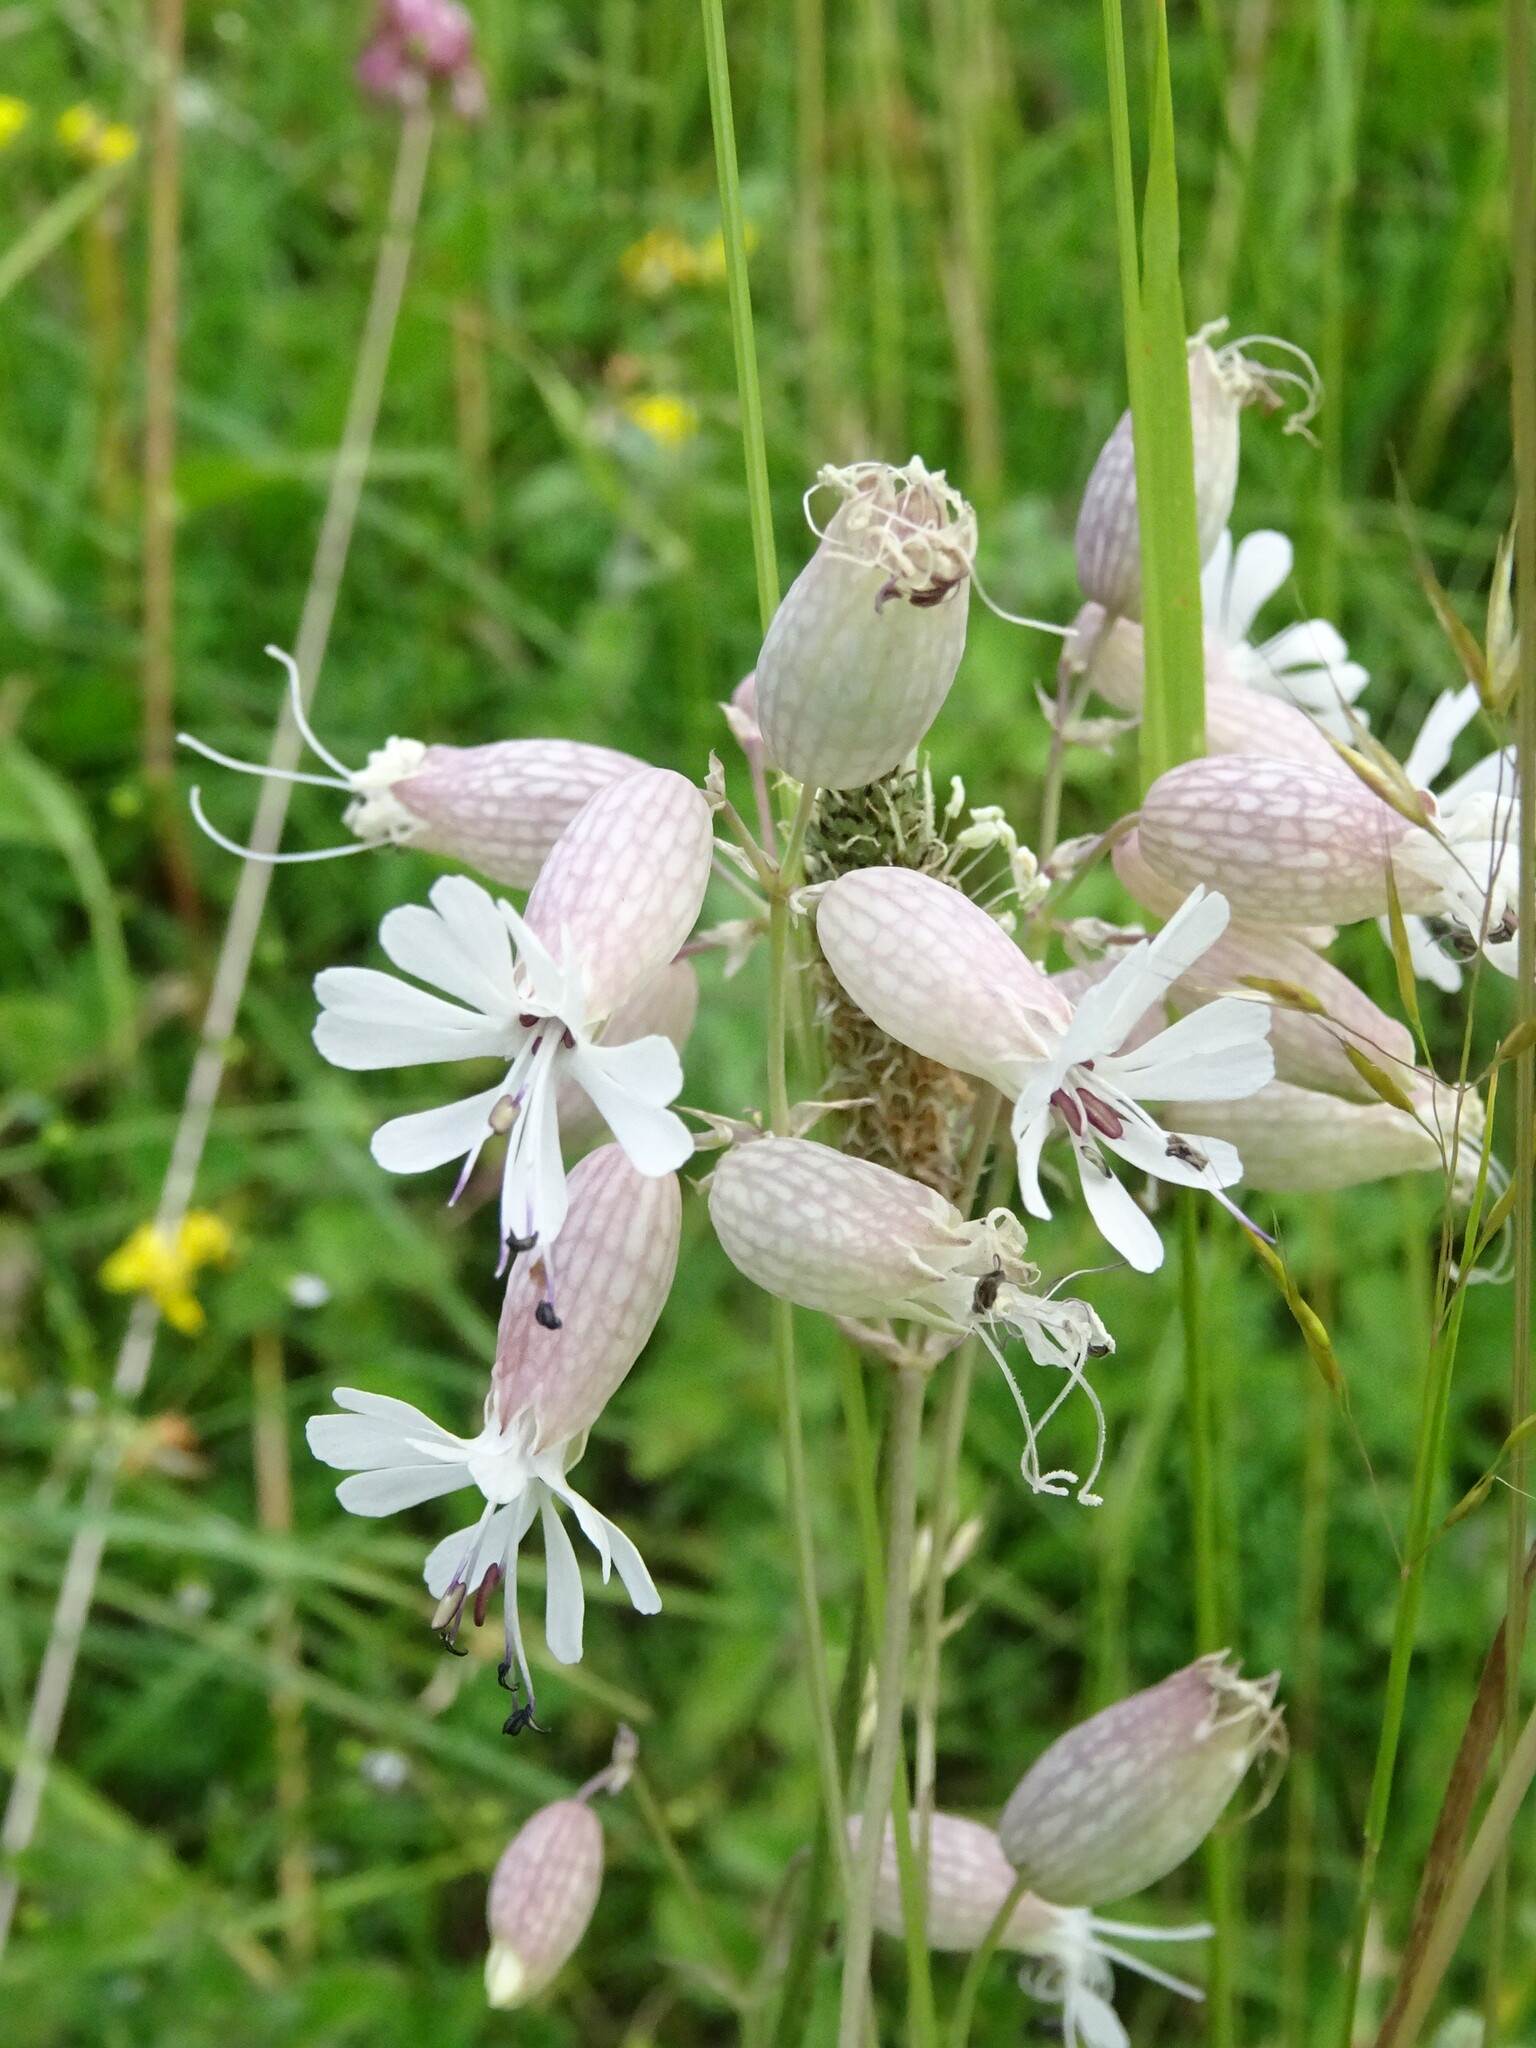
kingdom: Plantae
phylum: Tracheophyta
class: Magnoliopsida
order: Caryophyllales
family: Caryophyllaceae
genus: Silene
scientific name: Silene vulgaris
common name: Bladder campion
